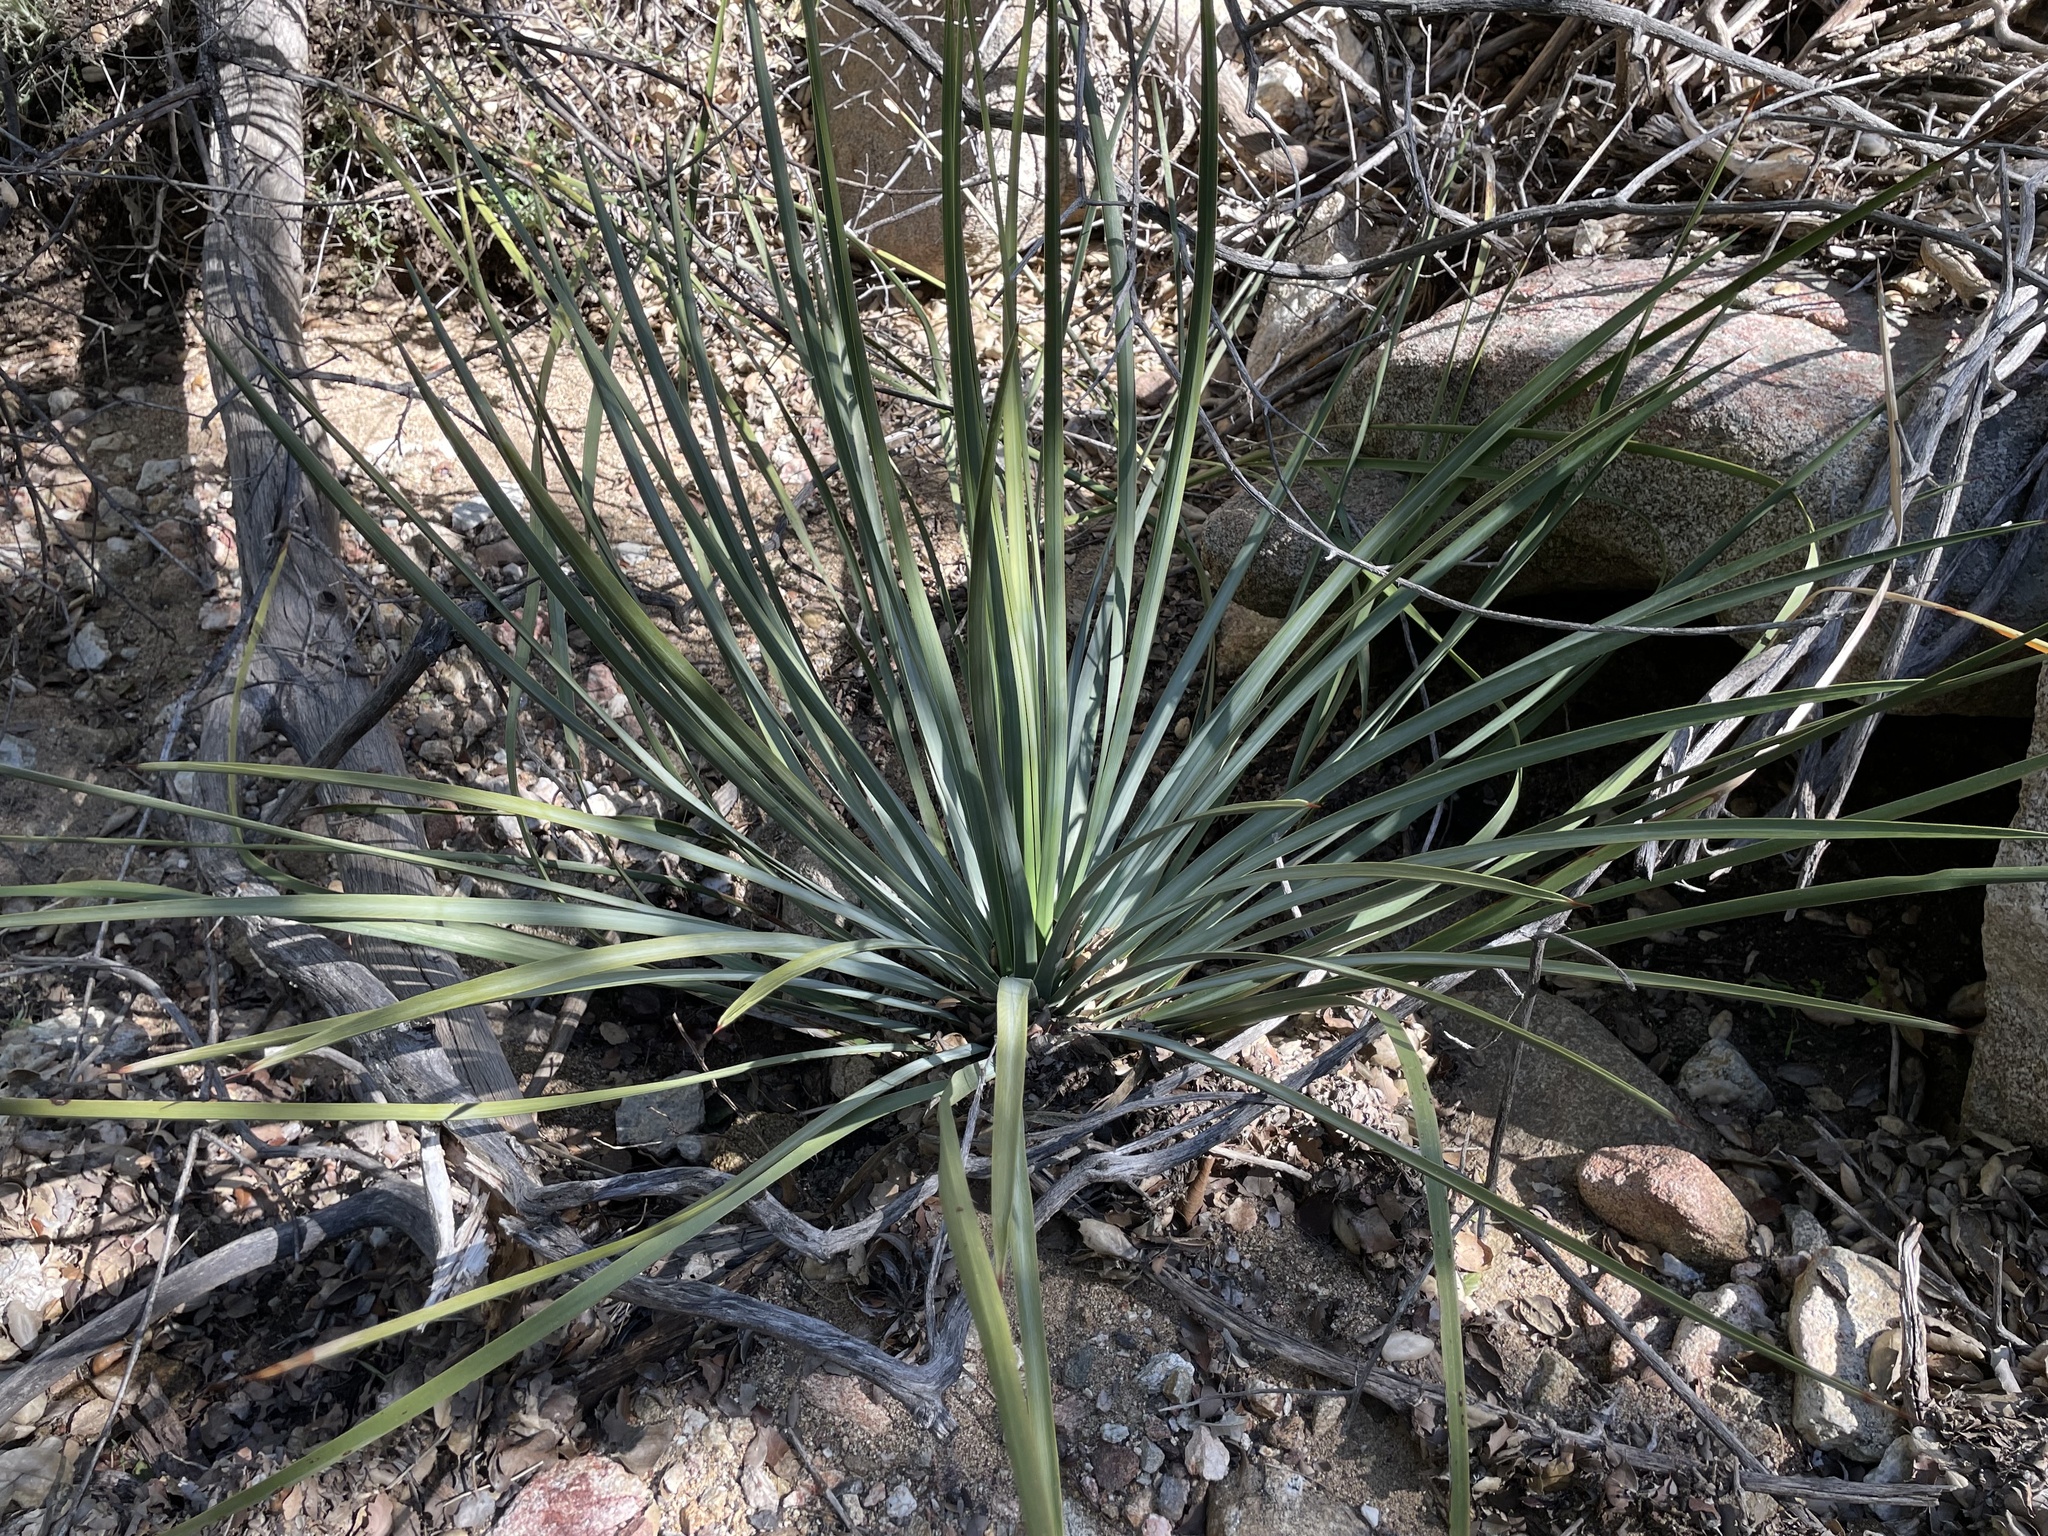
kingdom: Plantae
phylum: Tracheophyta
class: Liliopsida
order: Asparagales
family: Asparagaceae
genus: Hesperoyucca
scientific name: Hesperoyucca whipplei
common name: Our lord's-candle
